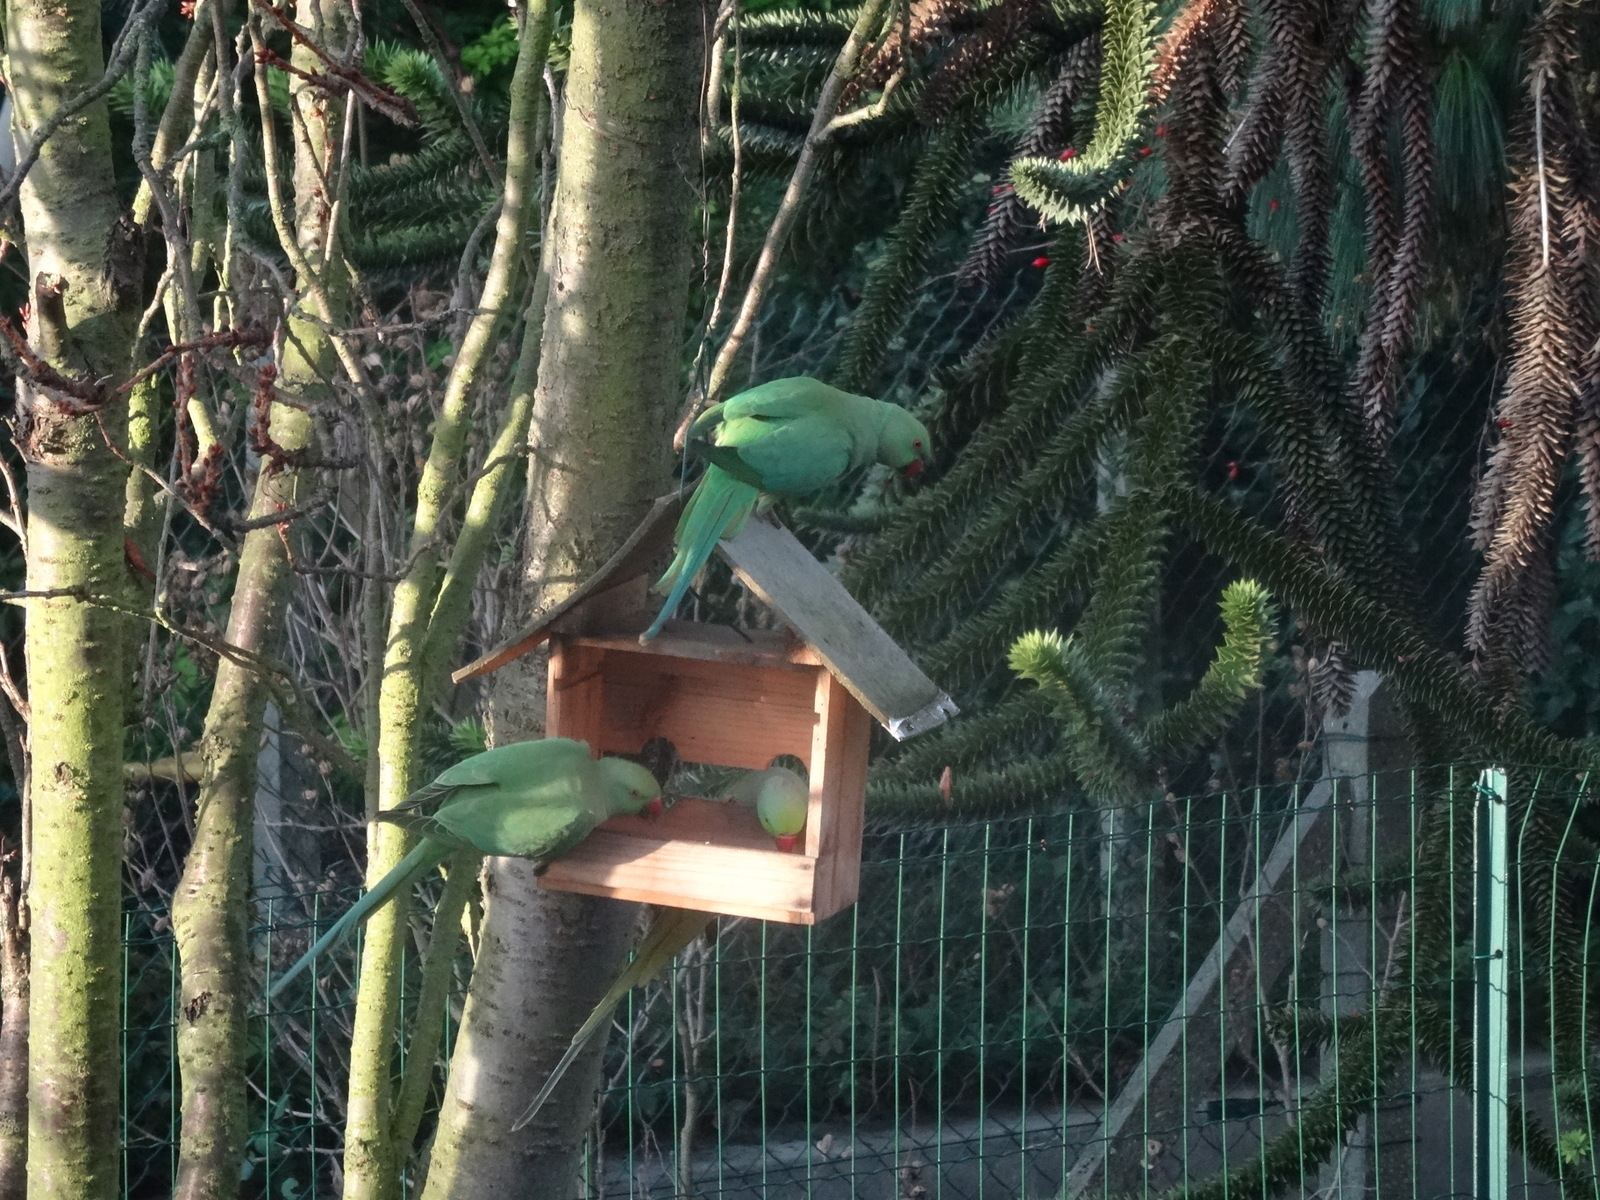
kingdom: Animalia
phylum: Chordata
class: Aves
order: Psittaciformes
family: Psittacidae
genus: Psittacula
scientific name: Psittacula krameri
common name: Rose-ringed parakeet
